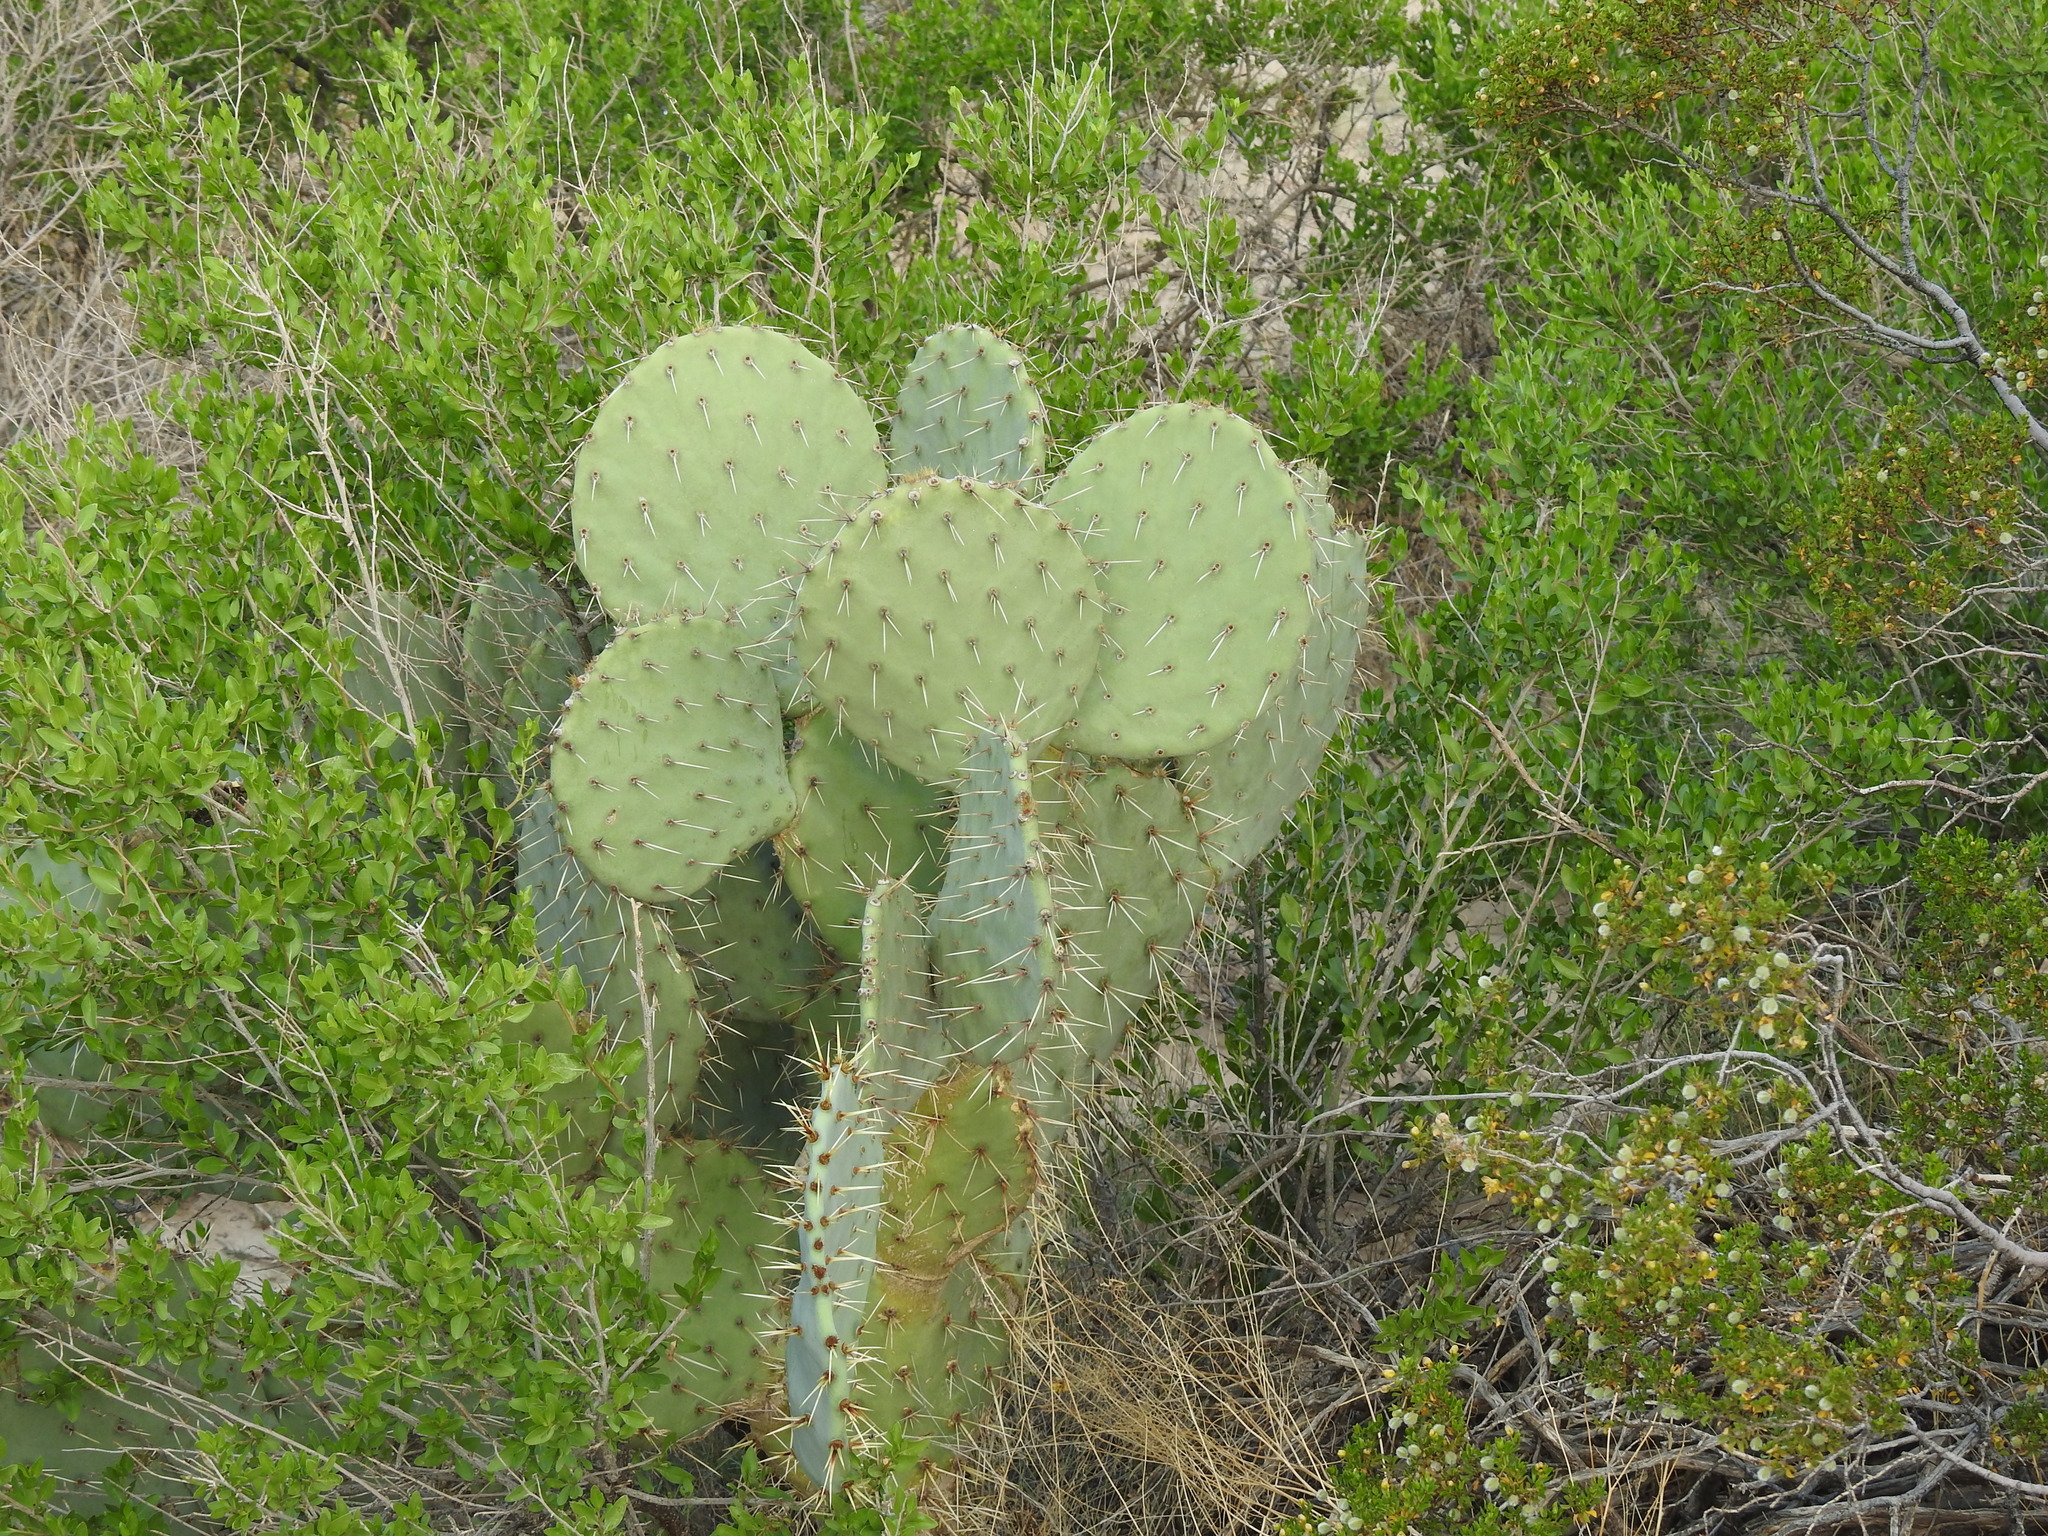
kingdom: Plantae
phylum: Tracheophyta
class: Magnoliopsida
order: Caryophyllales
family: Cactaceae
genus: Opuntia
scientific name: Opuntia orbiculata
